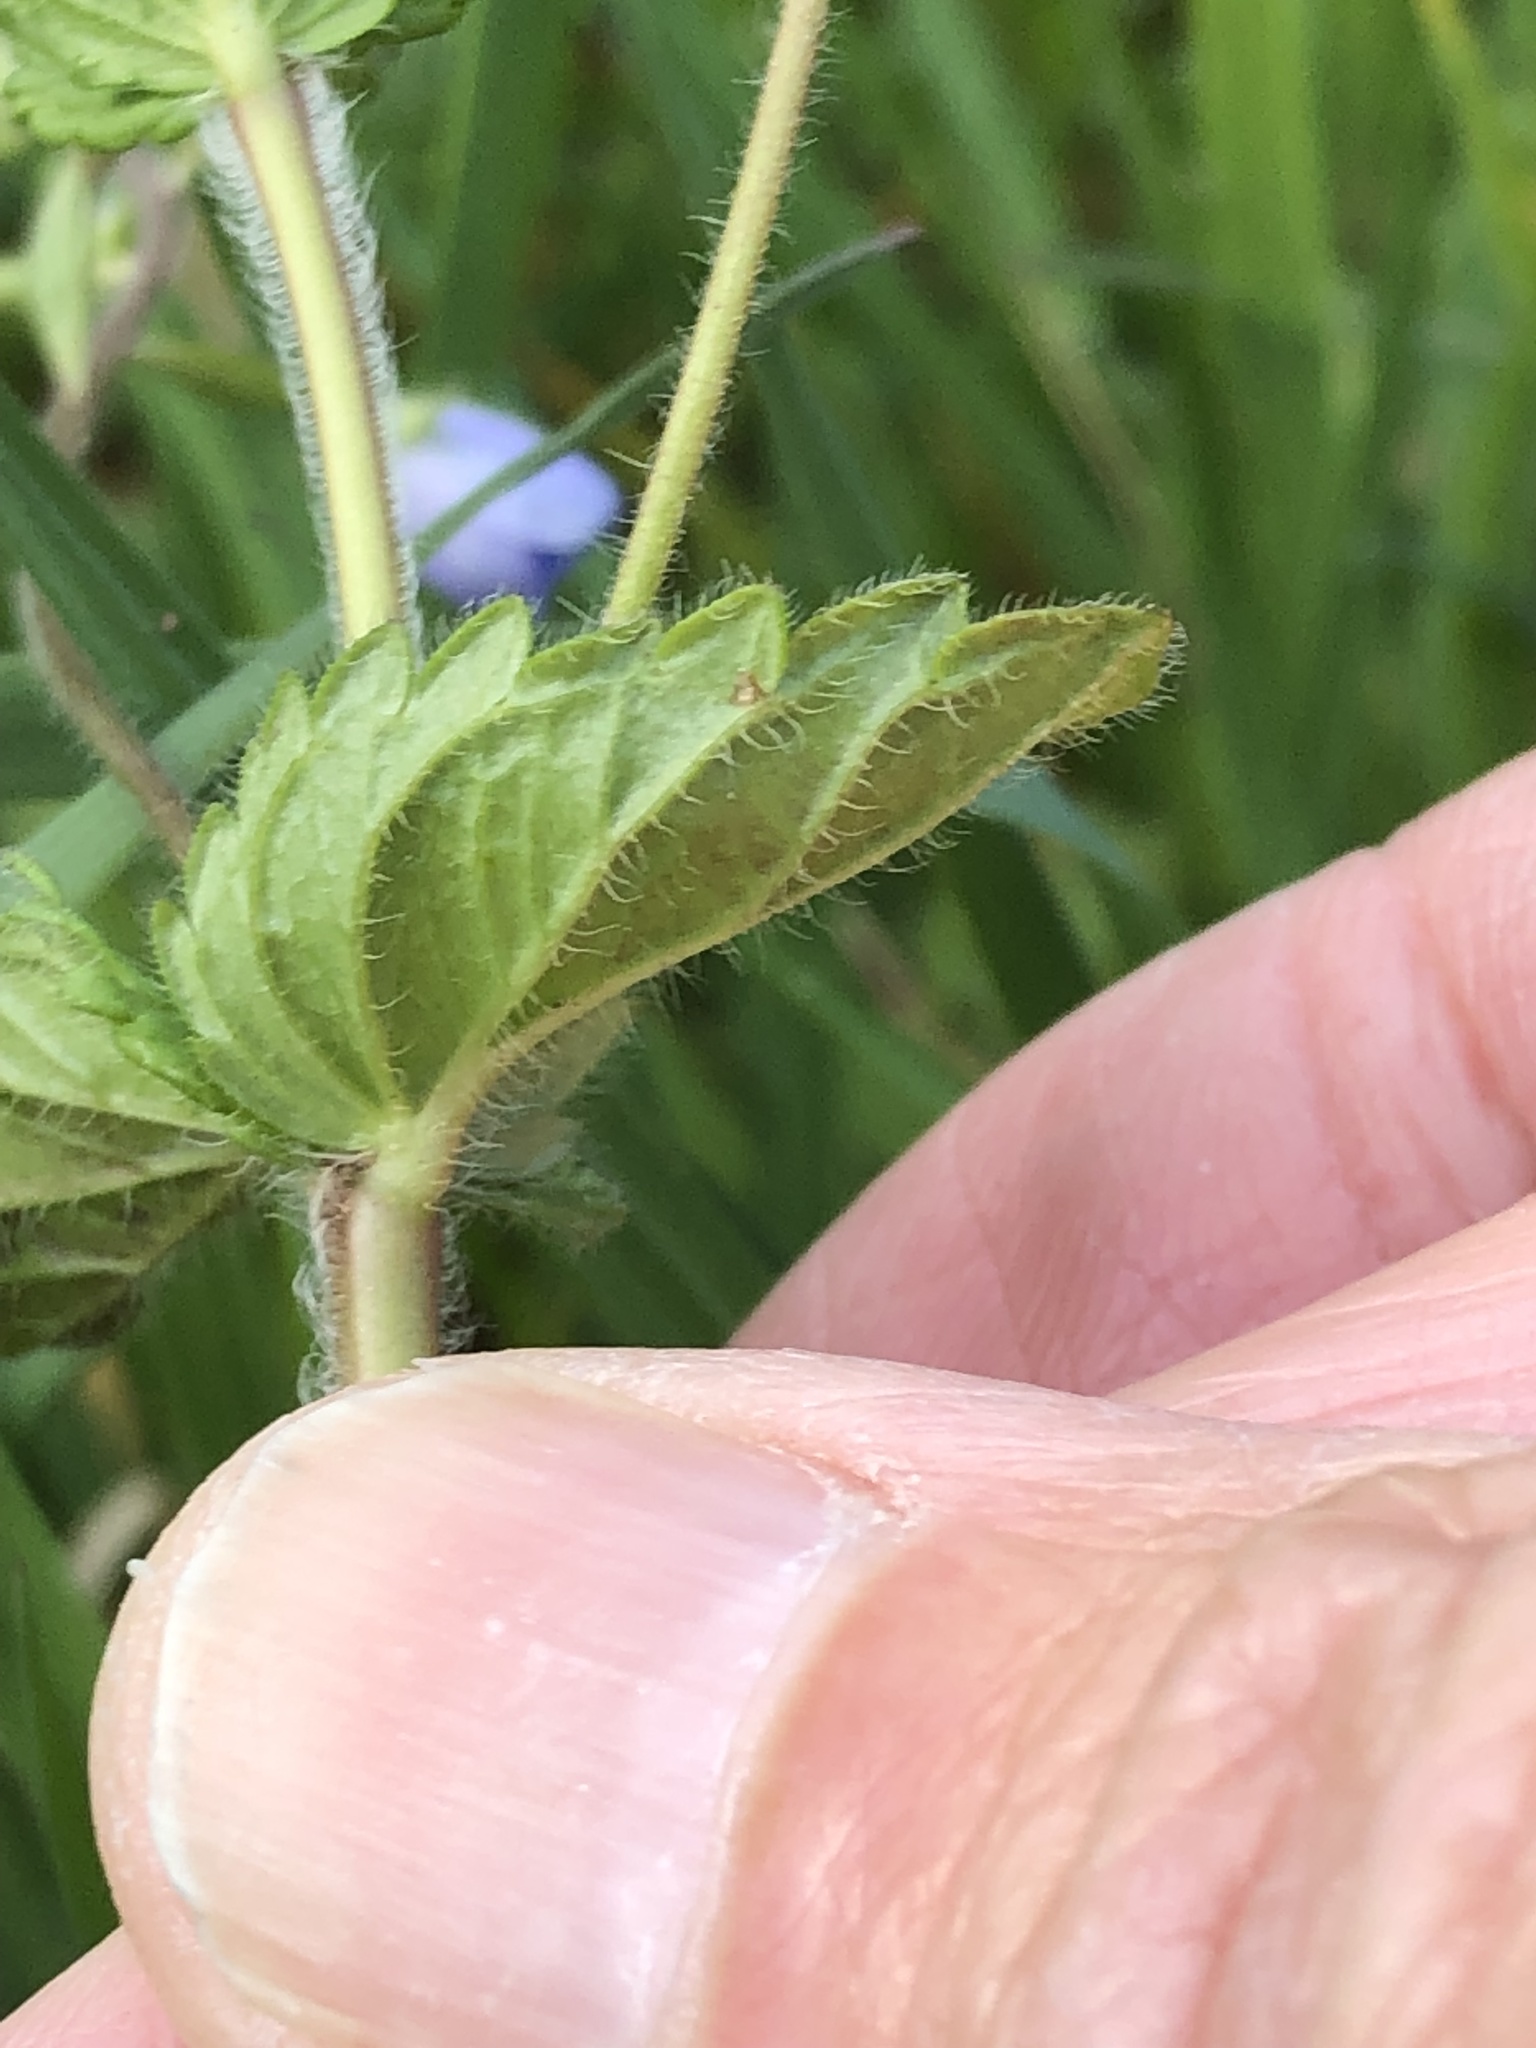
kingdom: Plantae
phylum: Tracheophyta
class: Magnoliopsida
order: Lamiales
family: Plantaginaceae
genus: Veronica
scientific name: Veronica chamaedrys
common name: Germander speedwell
